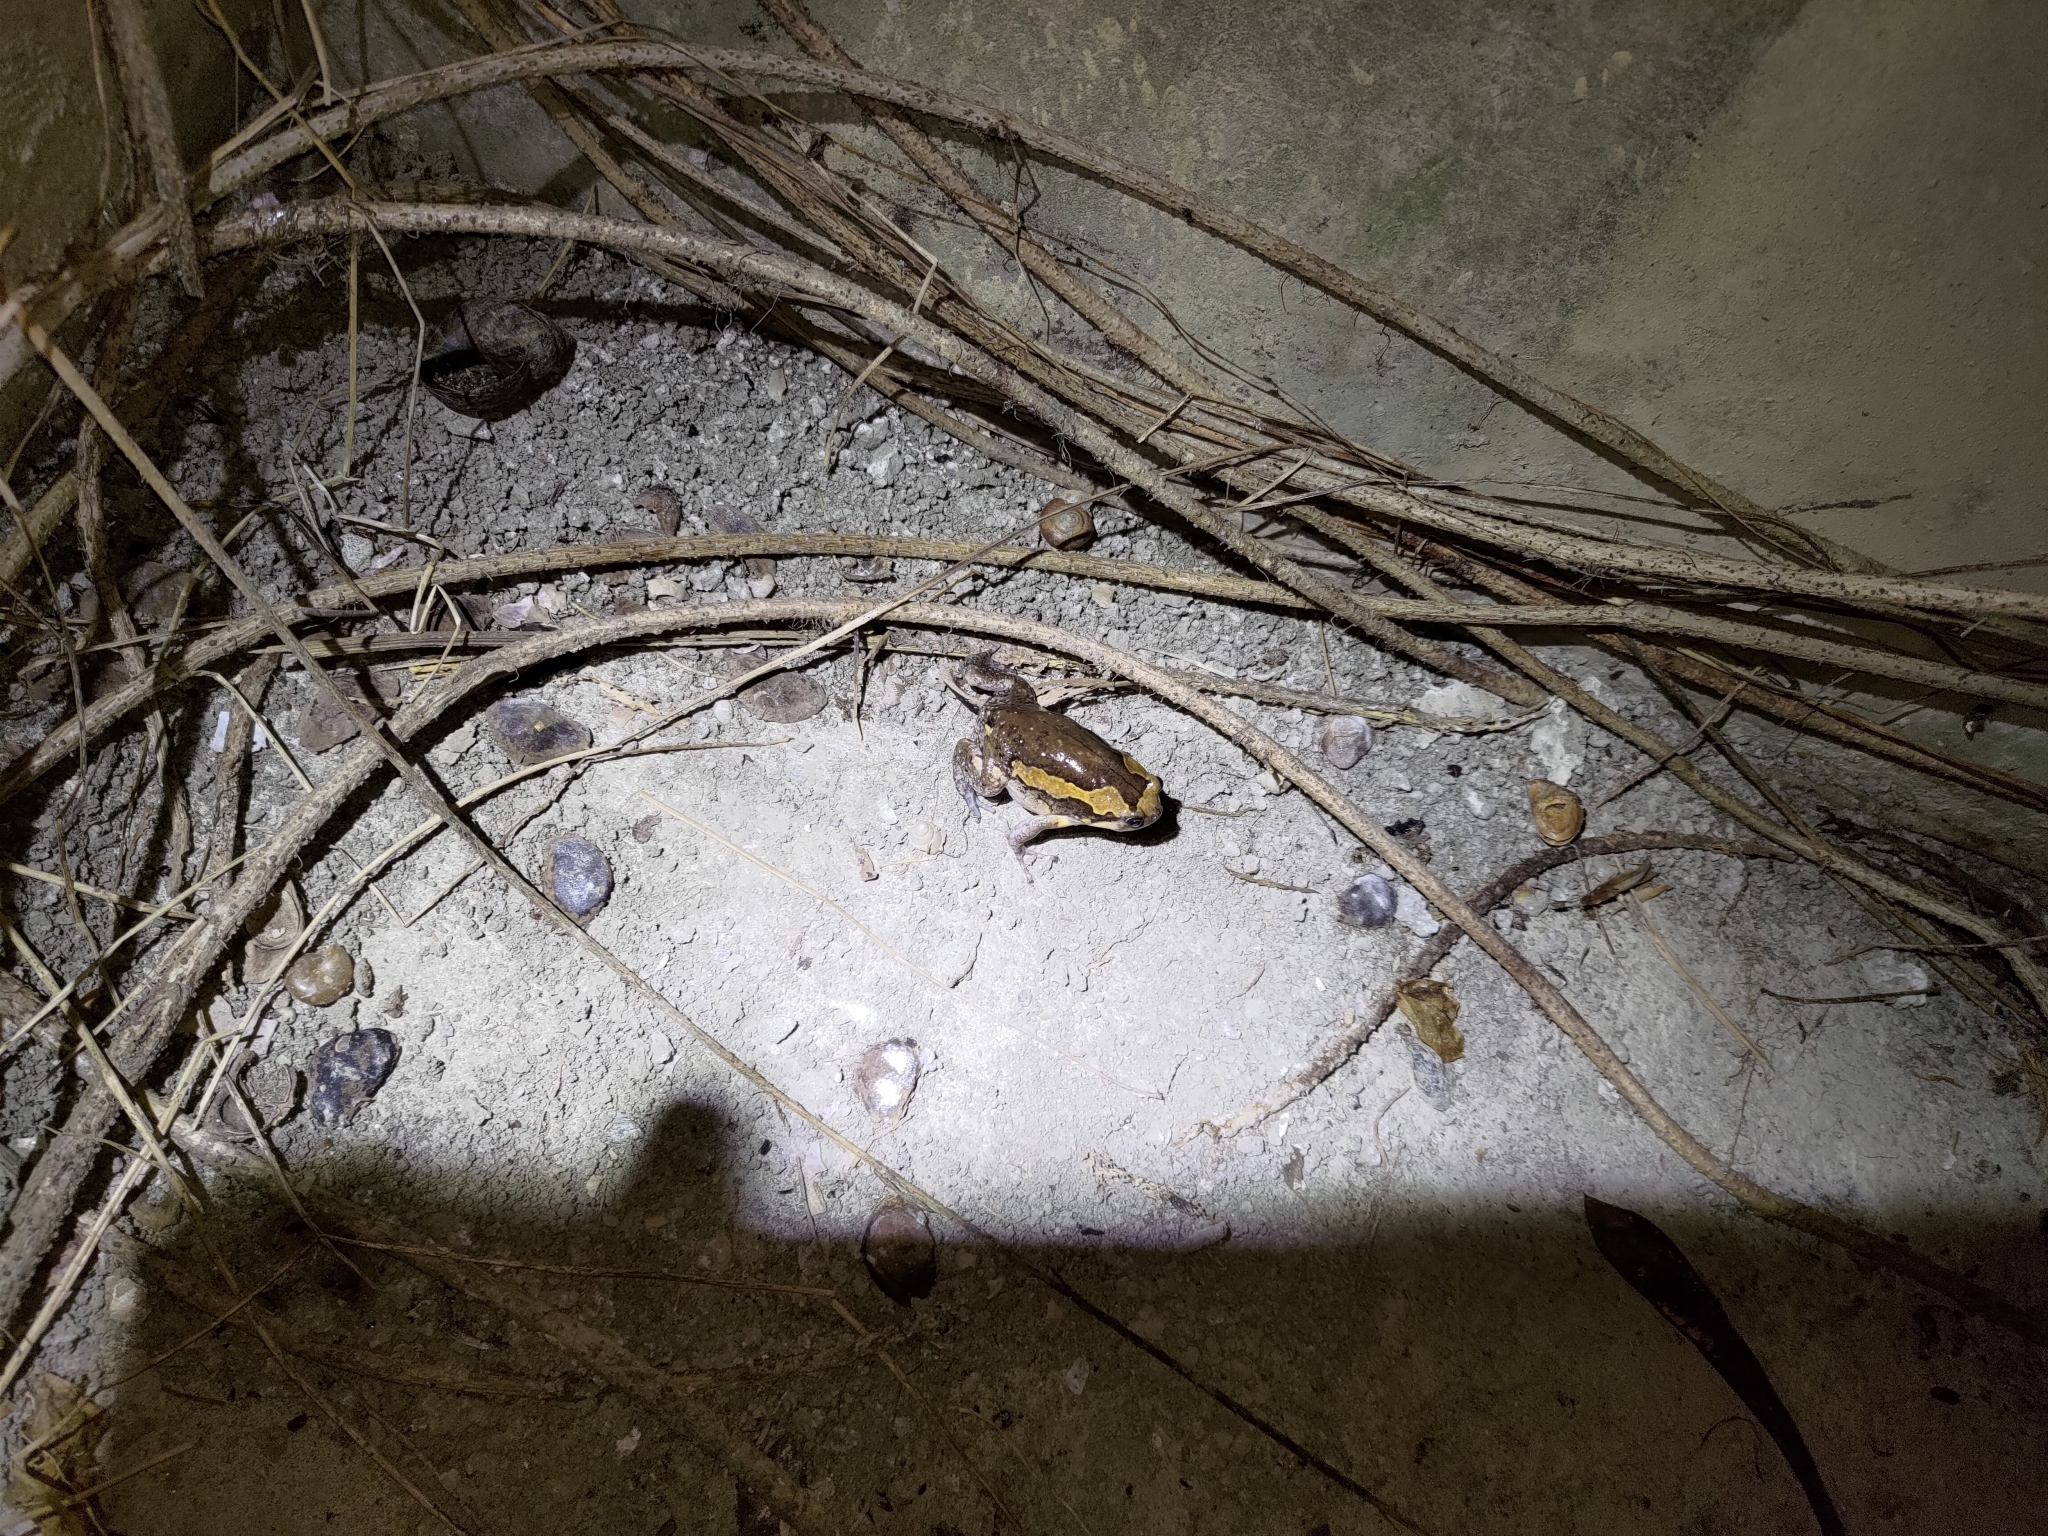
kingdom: Animalia
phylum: Chordata
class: Amphibia
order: Anura
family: Microhylidae
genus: Kaloula
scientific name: Kaloula pulchra
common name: Common,banded bullfrog
